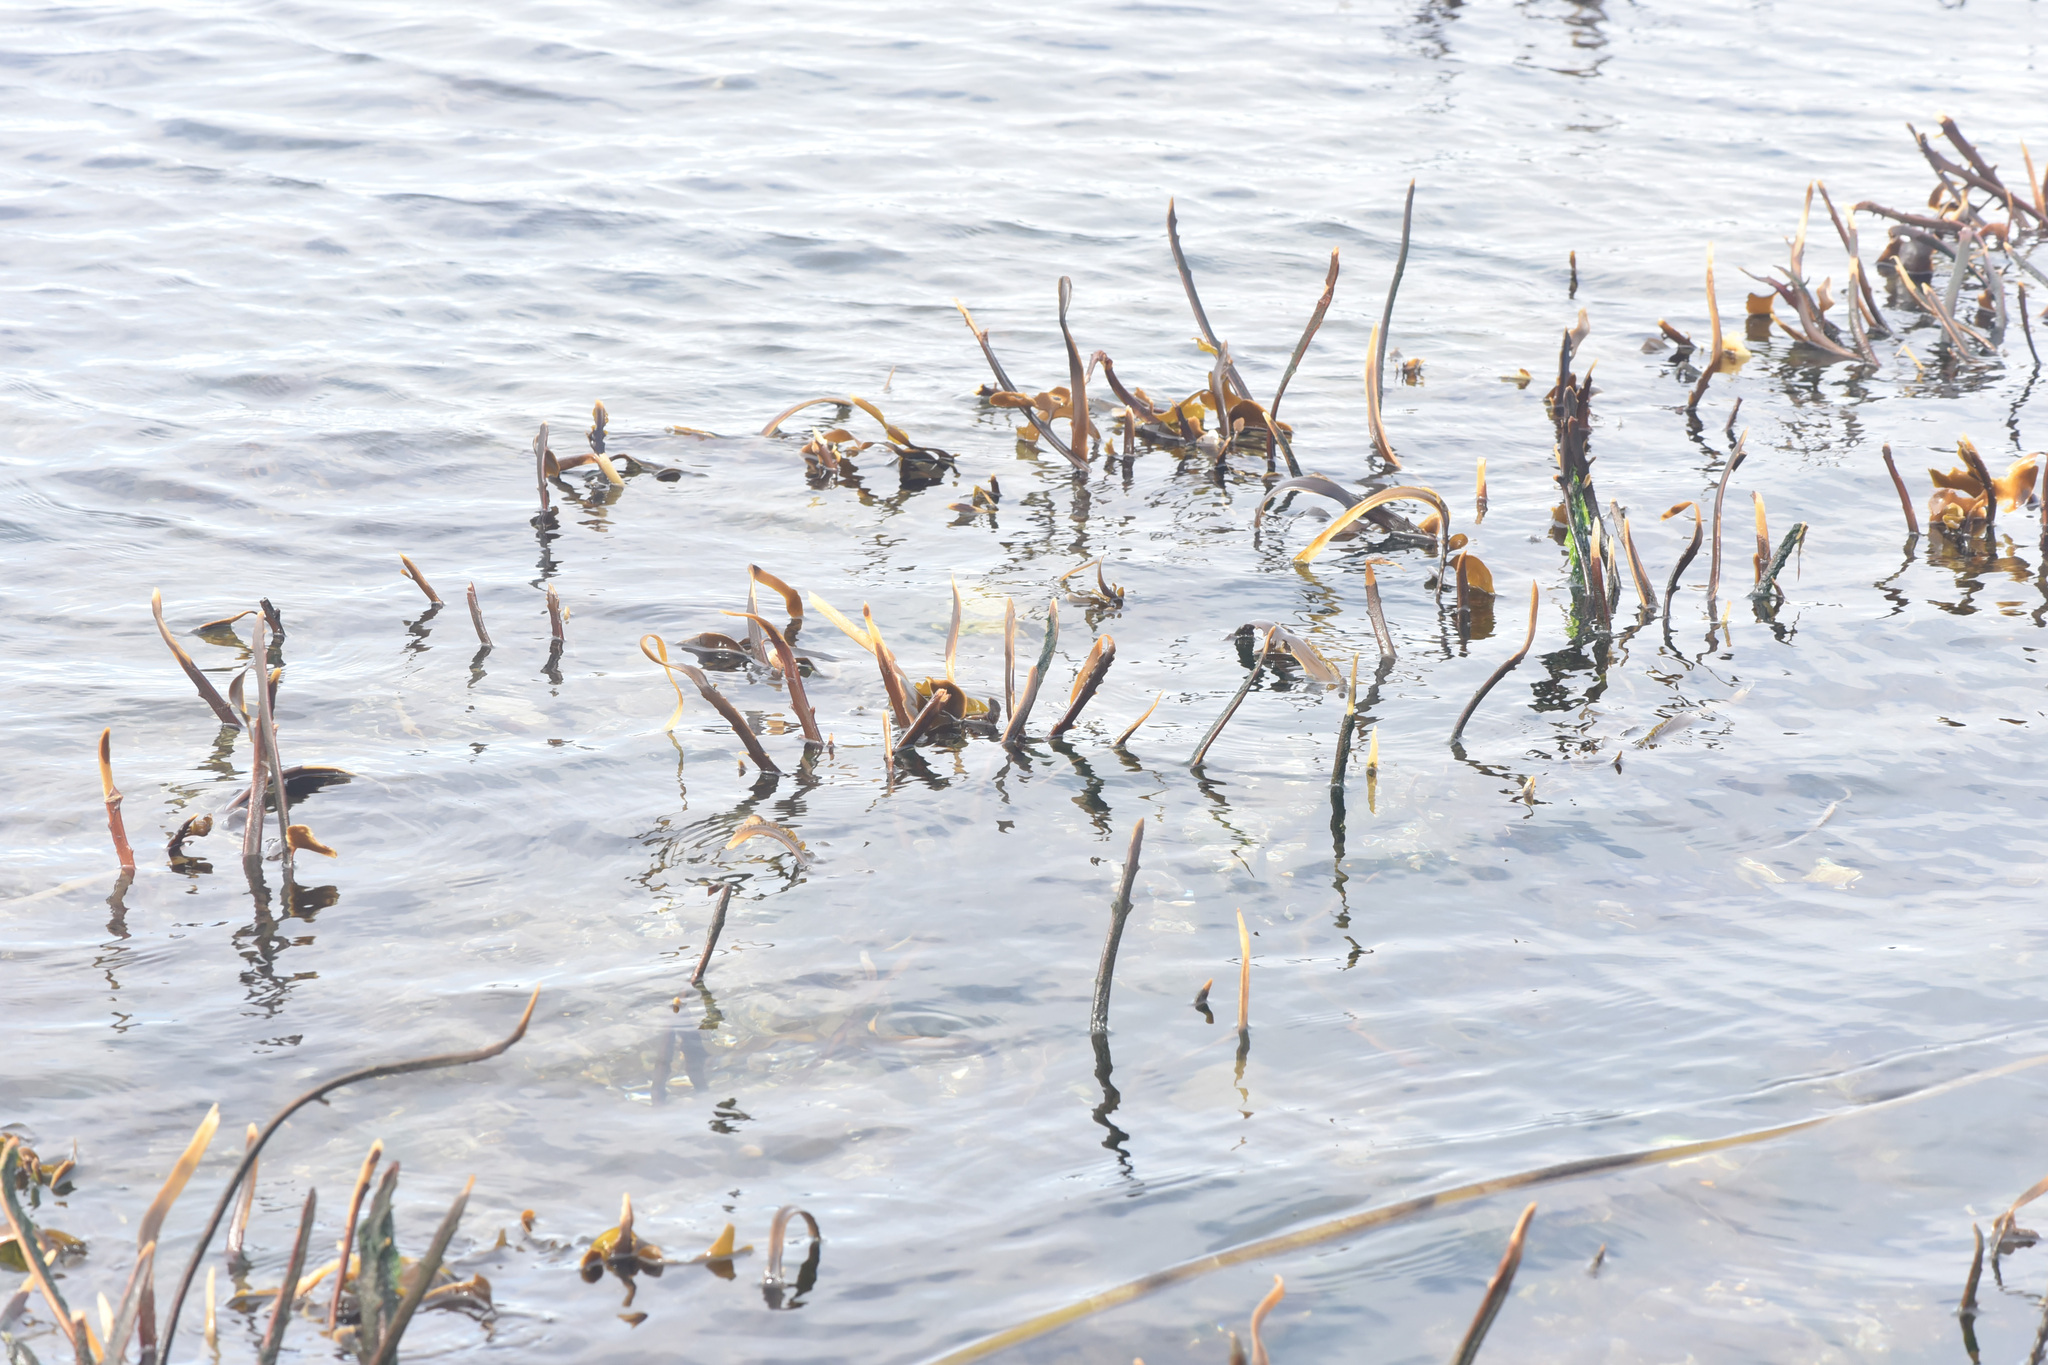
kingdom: Chromista
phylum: Ochrophyta
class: Phaeophyceae
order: Laminariales
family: Alariaceae
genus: Pterygophora
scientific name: Pterygophora californica
